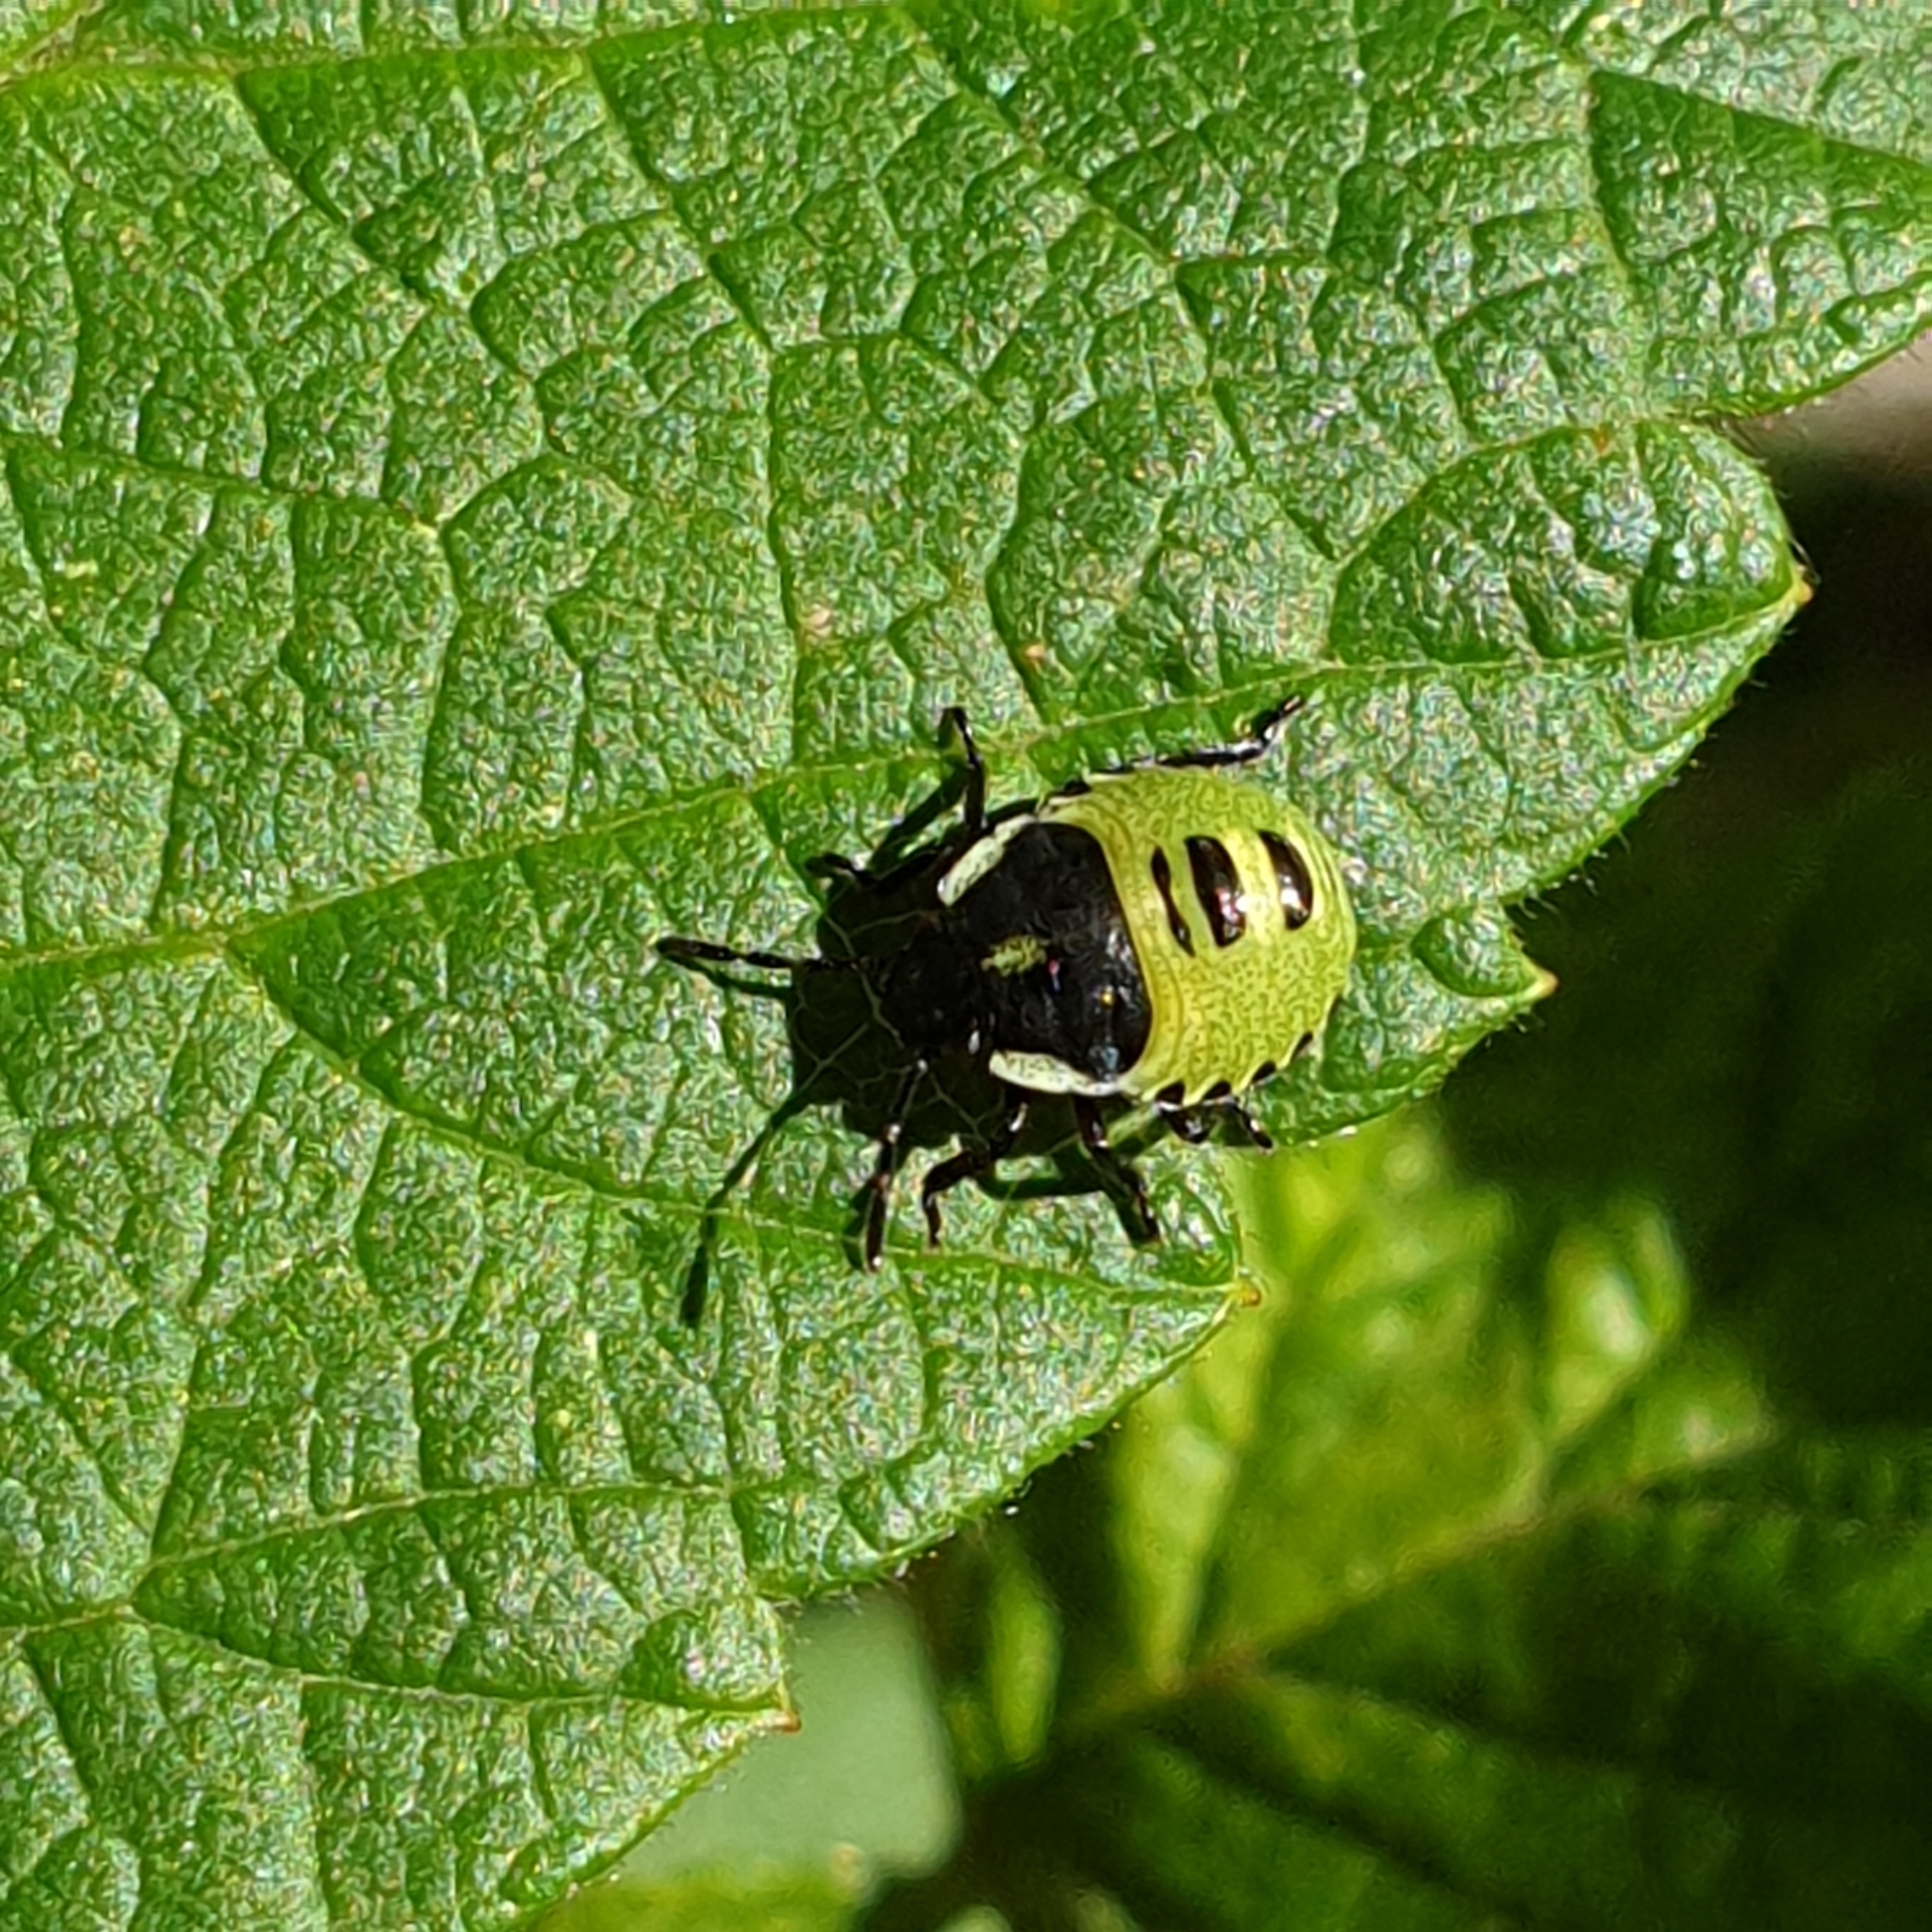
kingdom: Animalia
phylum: Arthropoda
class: Insecta
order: Hemiptera
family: Pentatomidae
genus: Palomena
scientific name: Palomena prasina
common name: Green shieldbug
